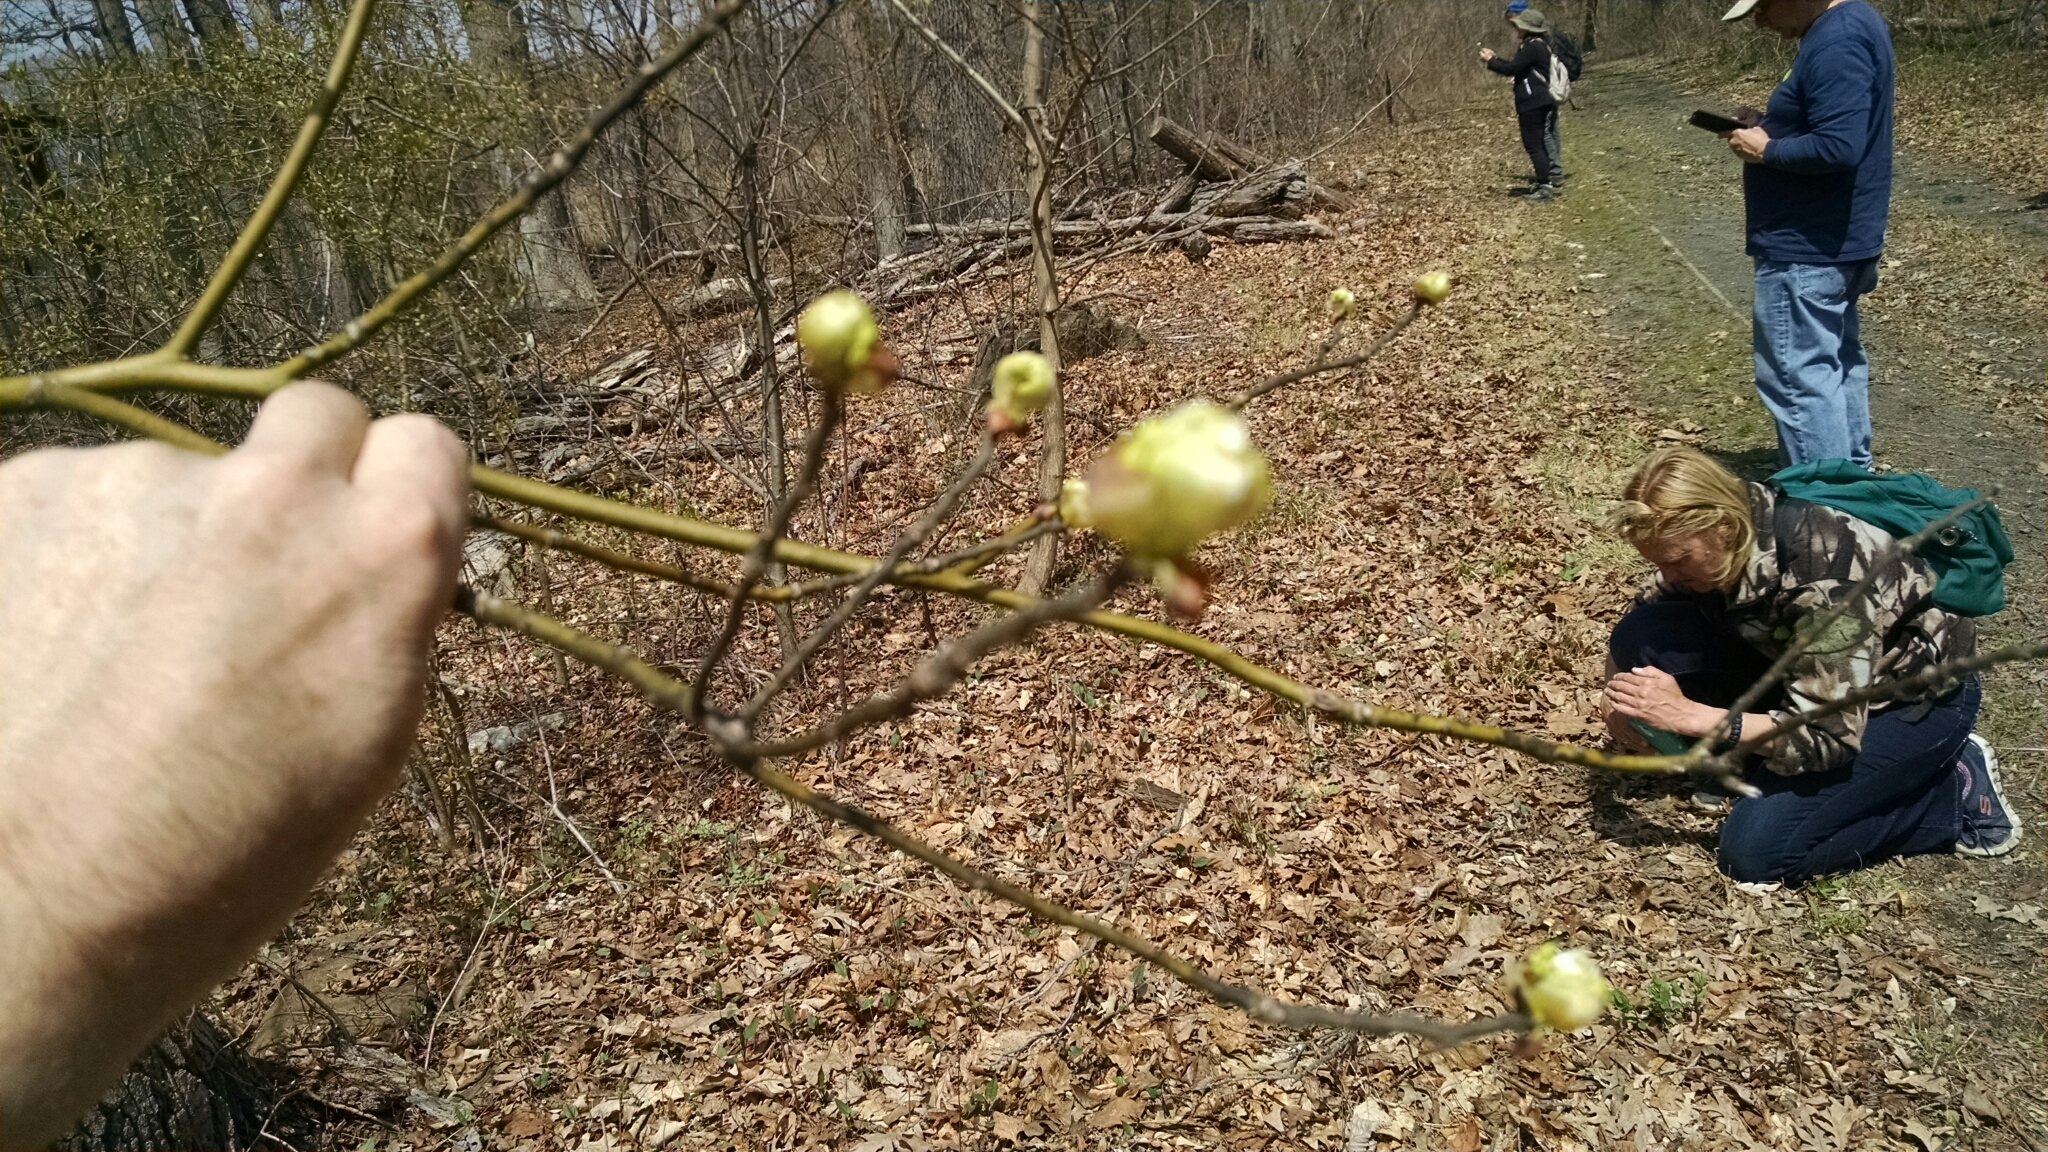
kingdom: Plantae
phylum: Tracheophyta
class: Magnoliopsida
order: Laurales
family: Lauraceae
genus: Sassafras
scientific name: Sassafras albidum
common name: Sassafras
